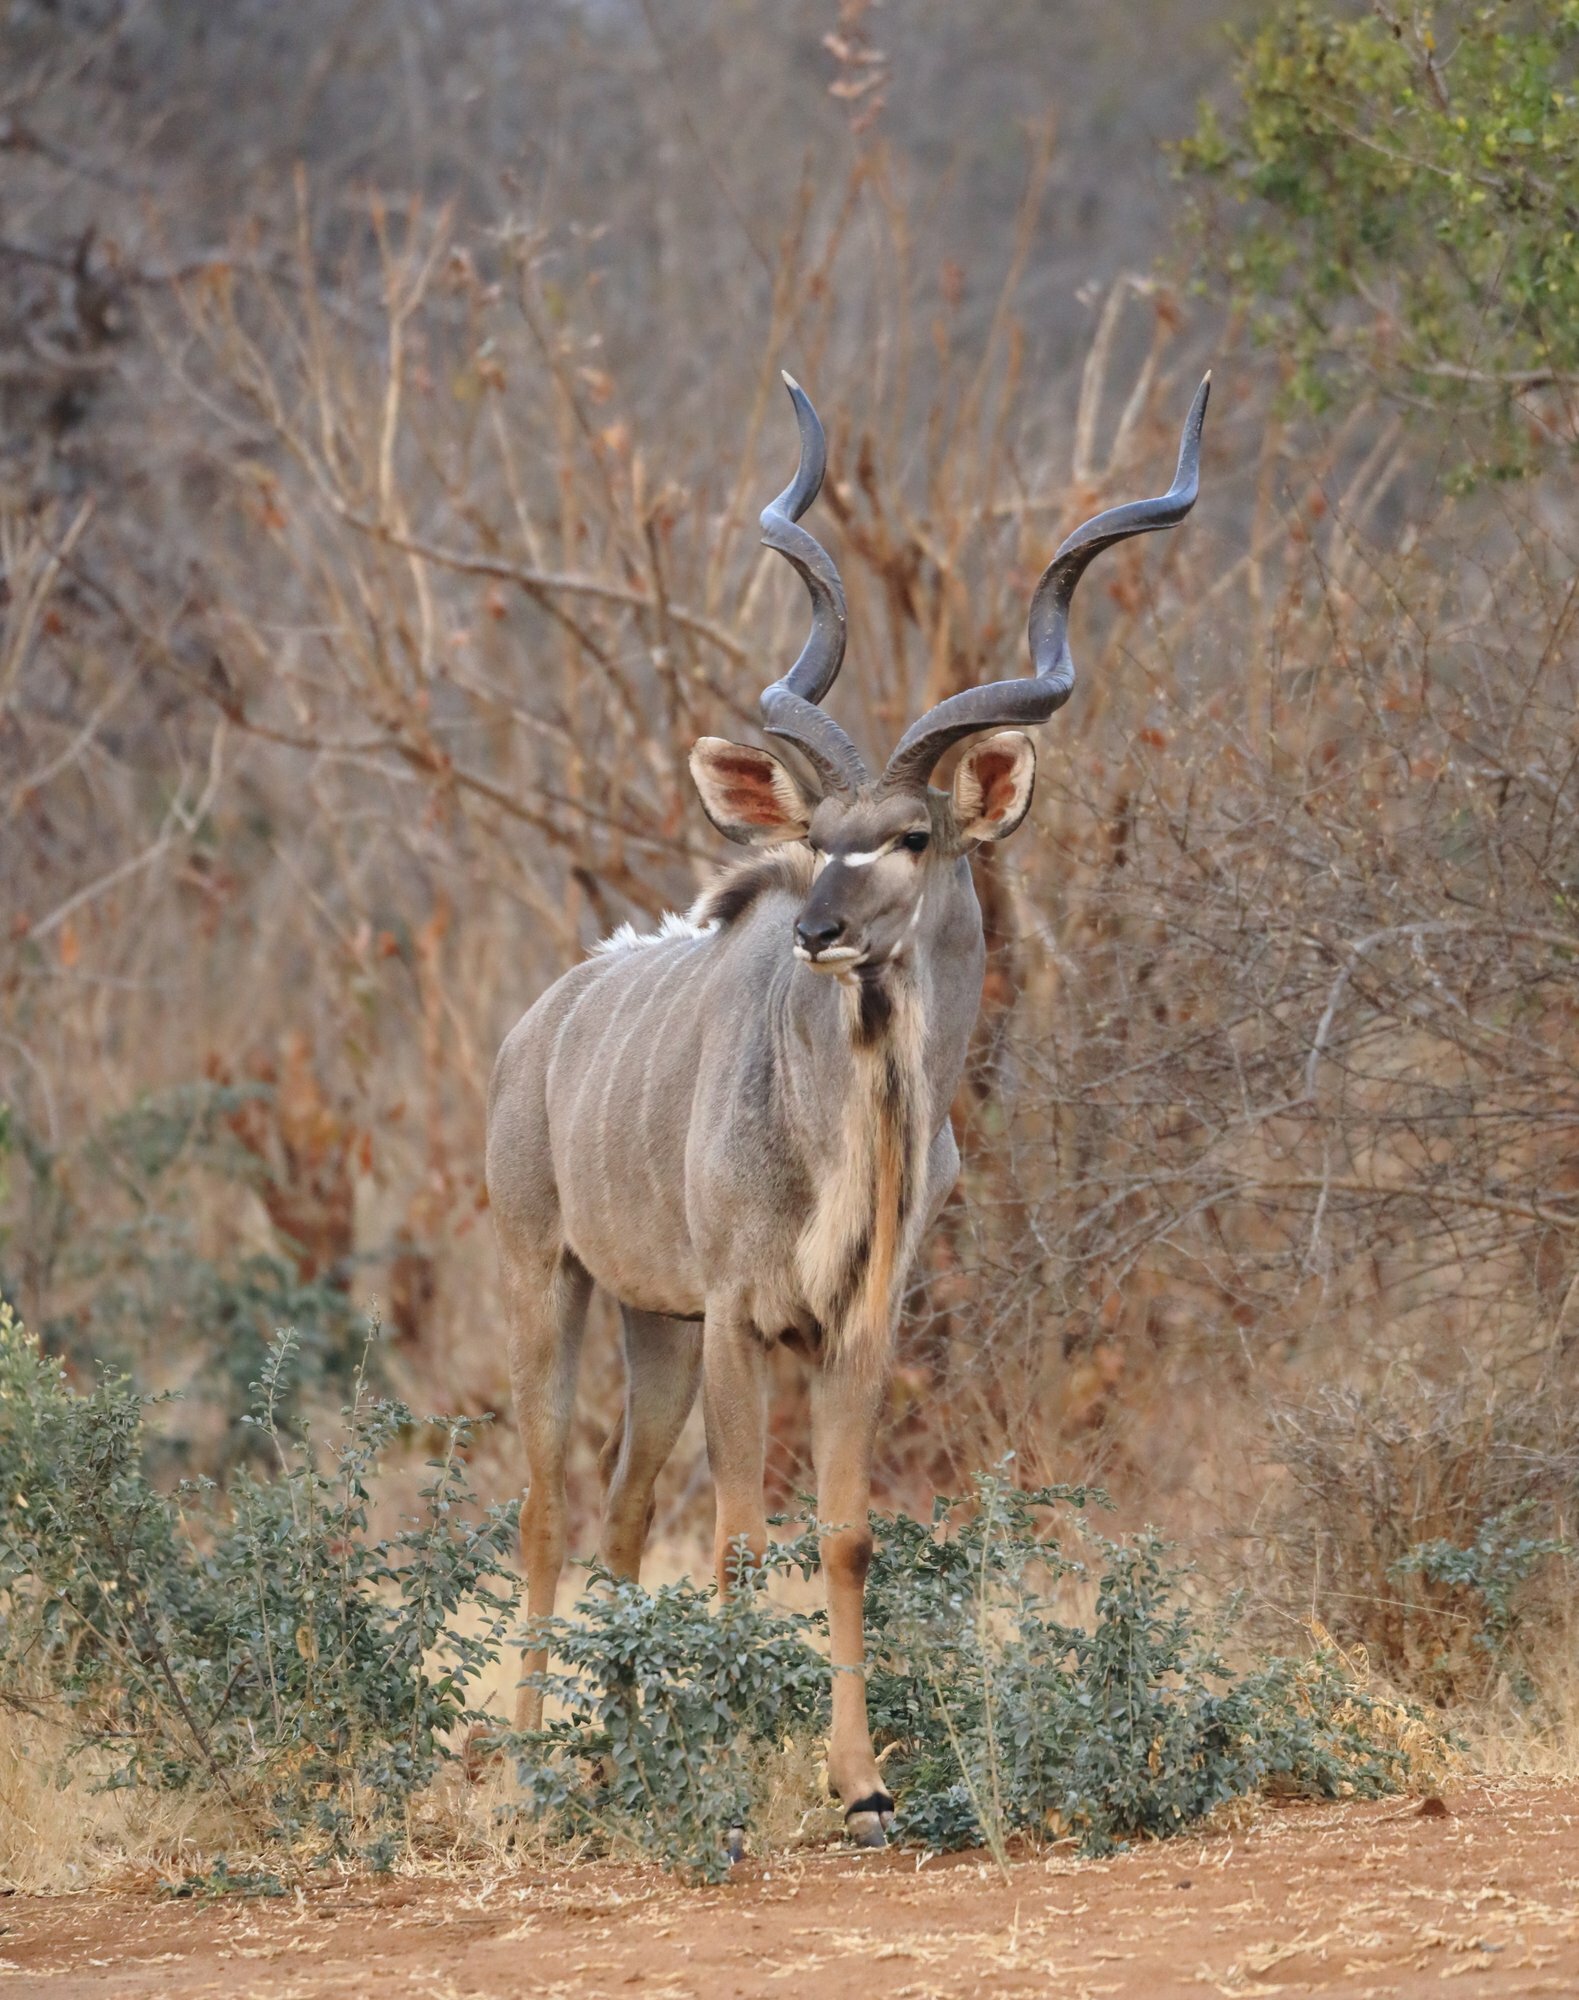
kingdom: Animalia
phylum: Chordata
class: Mammalia
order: Artiodactyla
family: Bovidae
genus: Tragelaphus
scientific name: Tragelaphus strepsiceros
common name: Greater kudu
